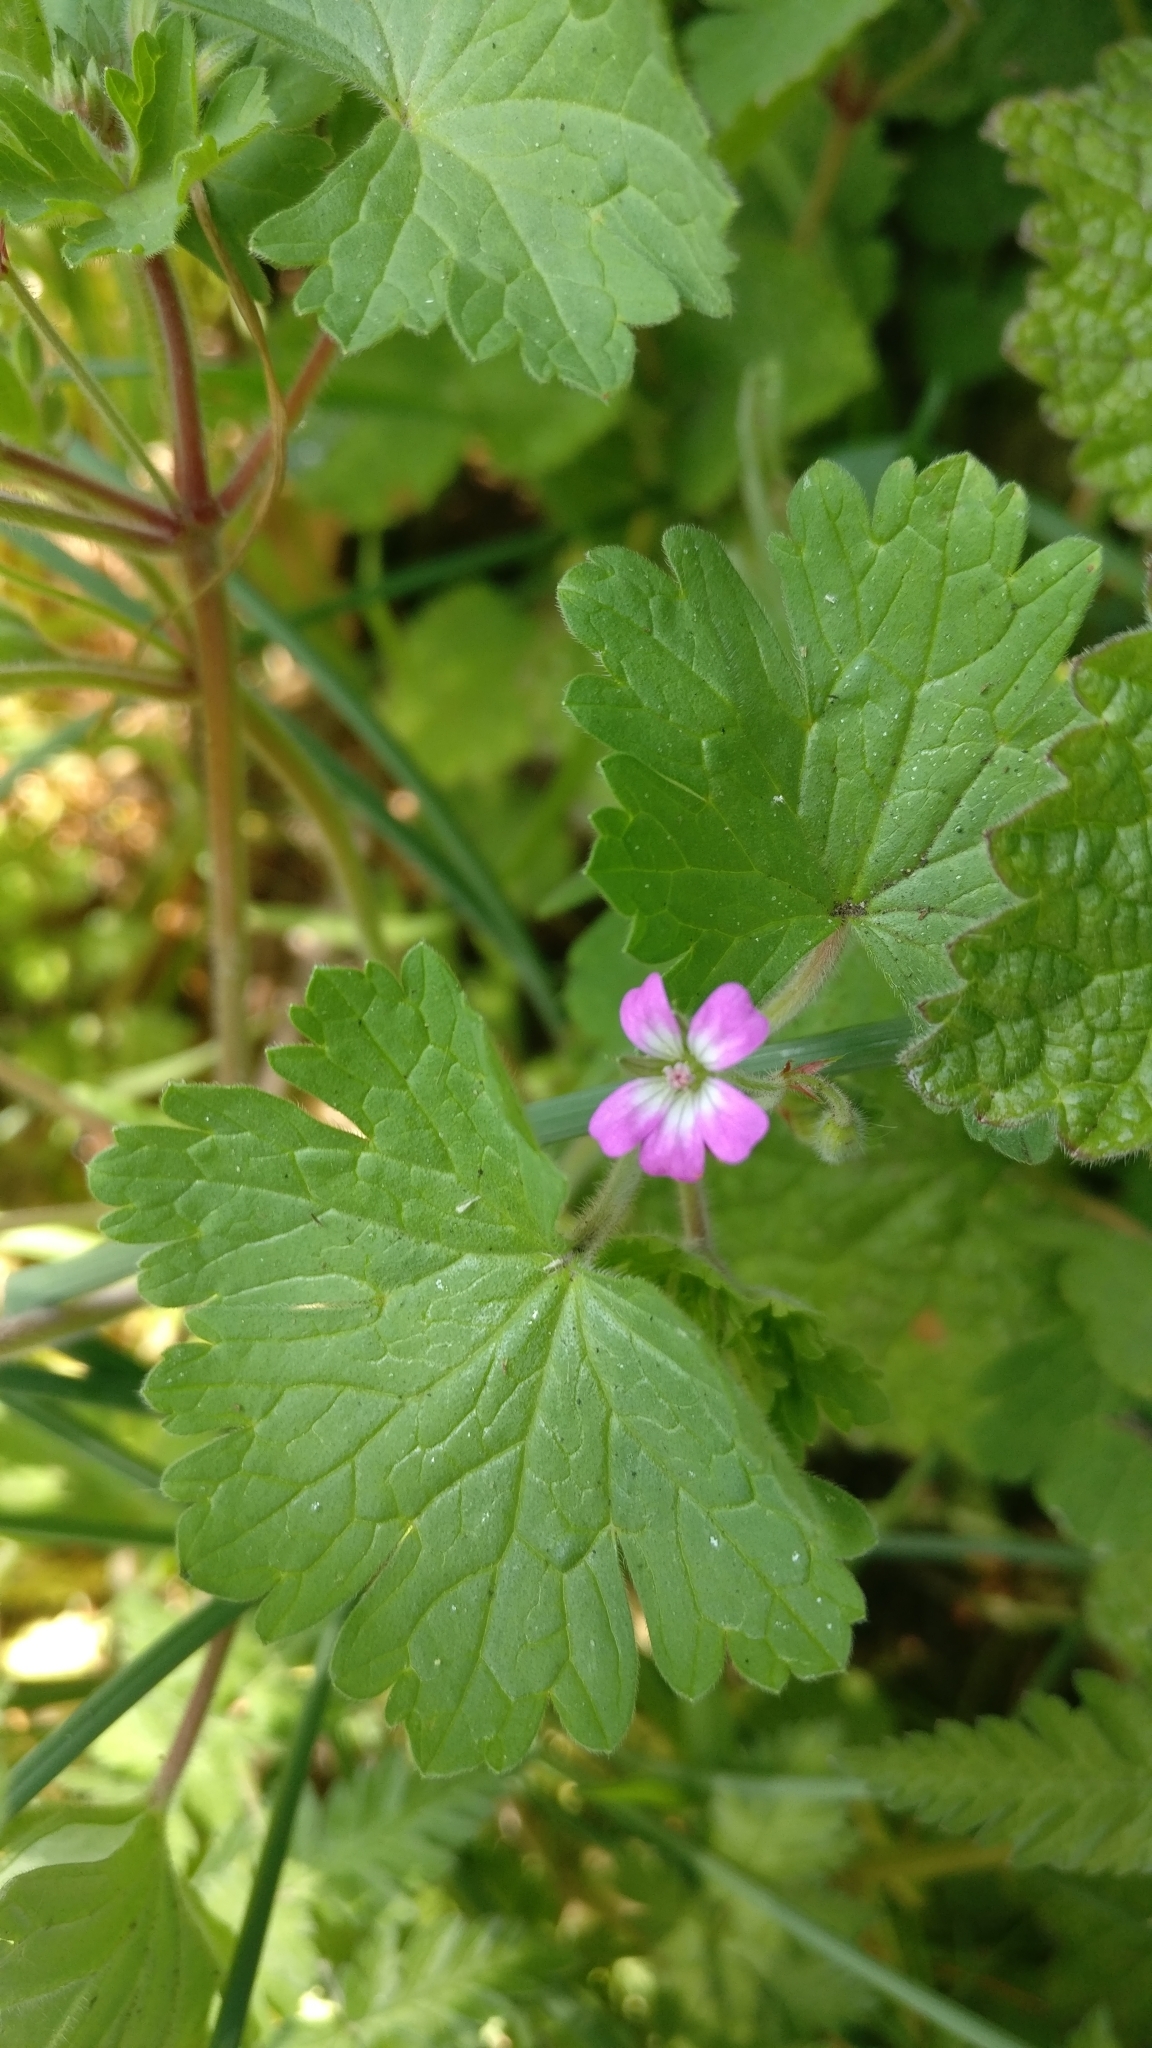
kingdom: Plantae
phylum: Tracheophyta
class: Magnoliopsida
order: Geraniales
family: Geraniaceae
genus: Geranium
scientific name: Geranium rotundifolium
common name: Round-leaved crane's-bill
